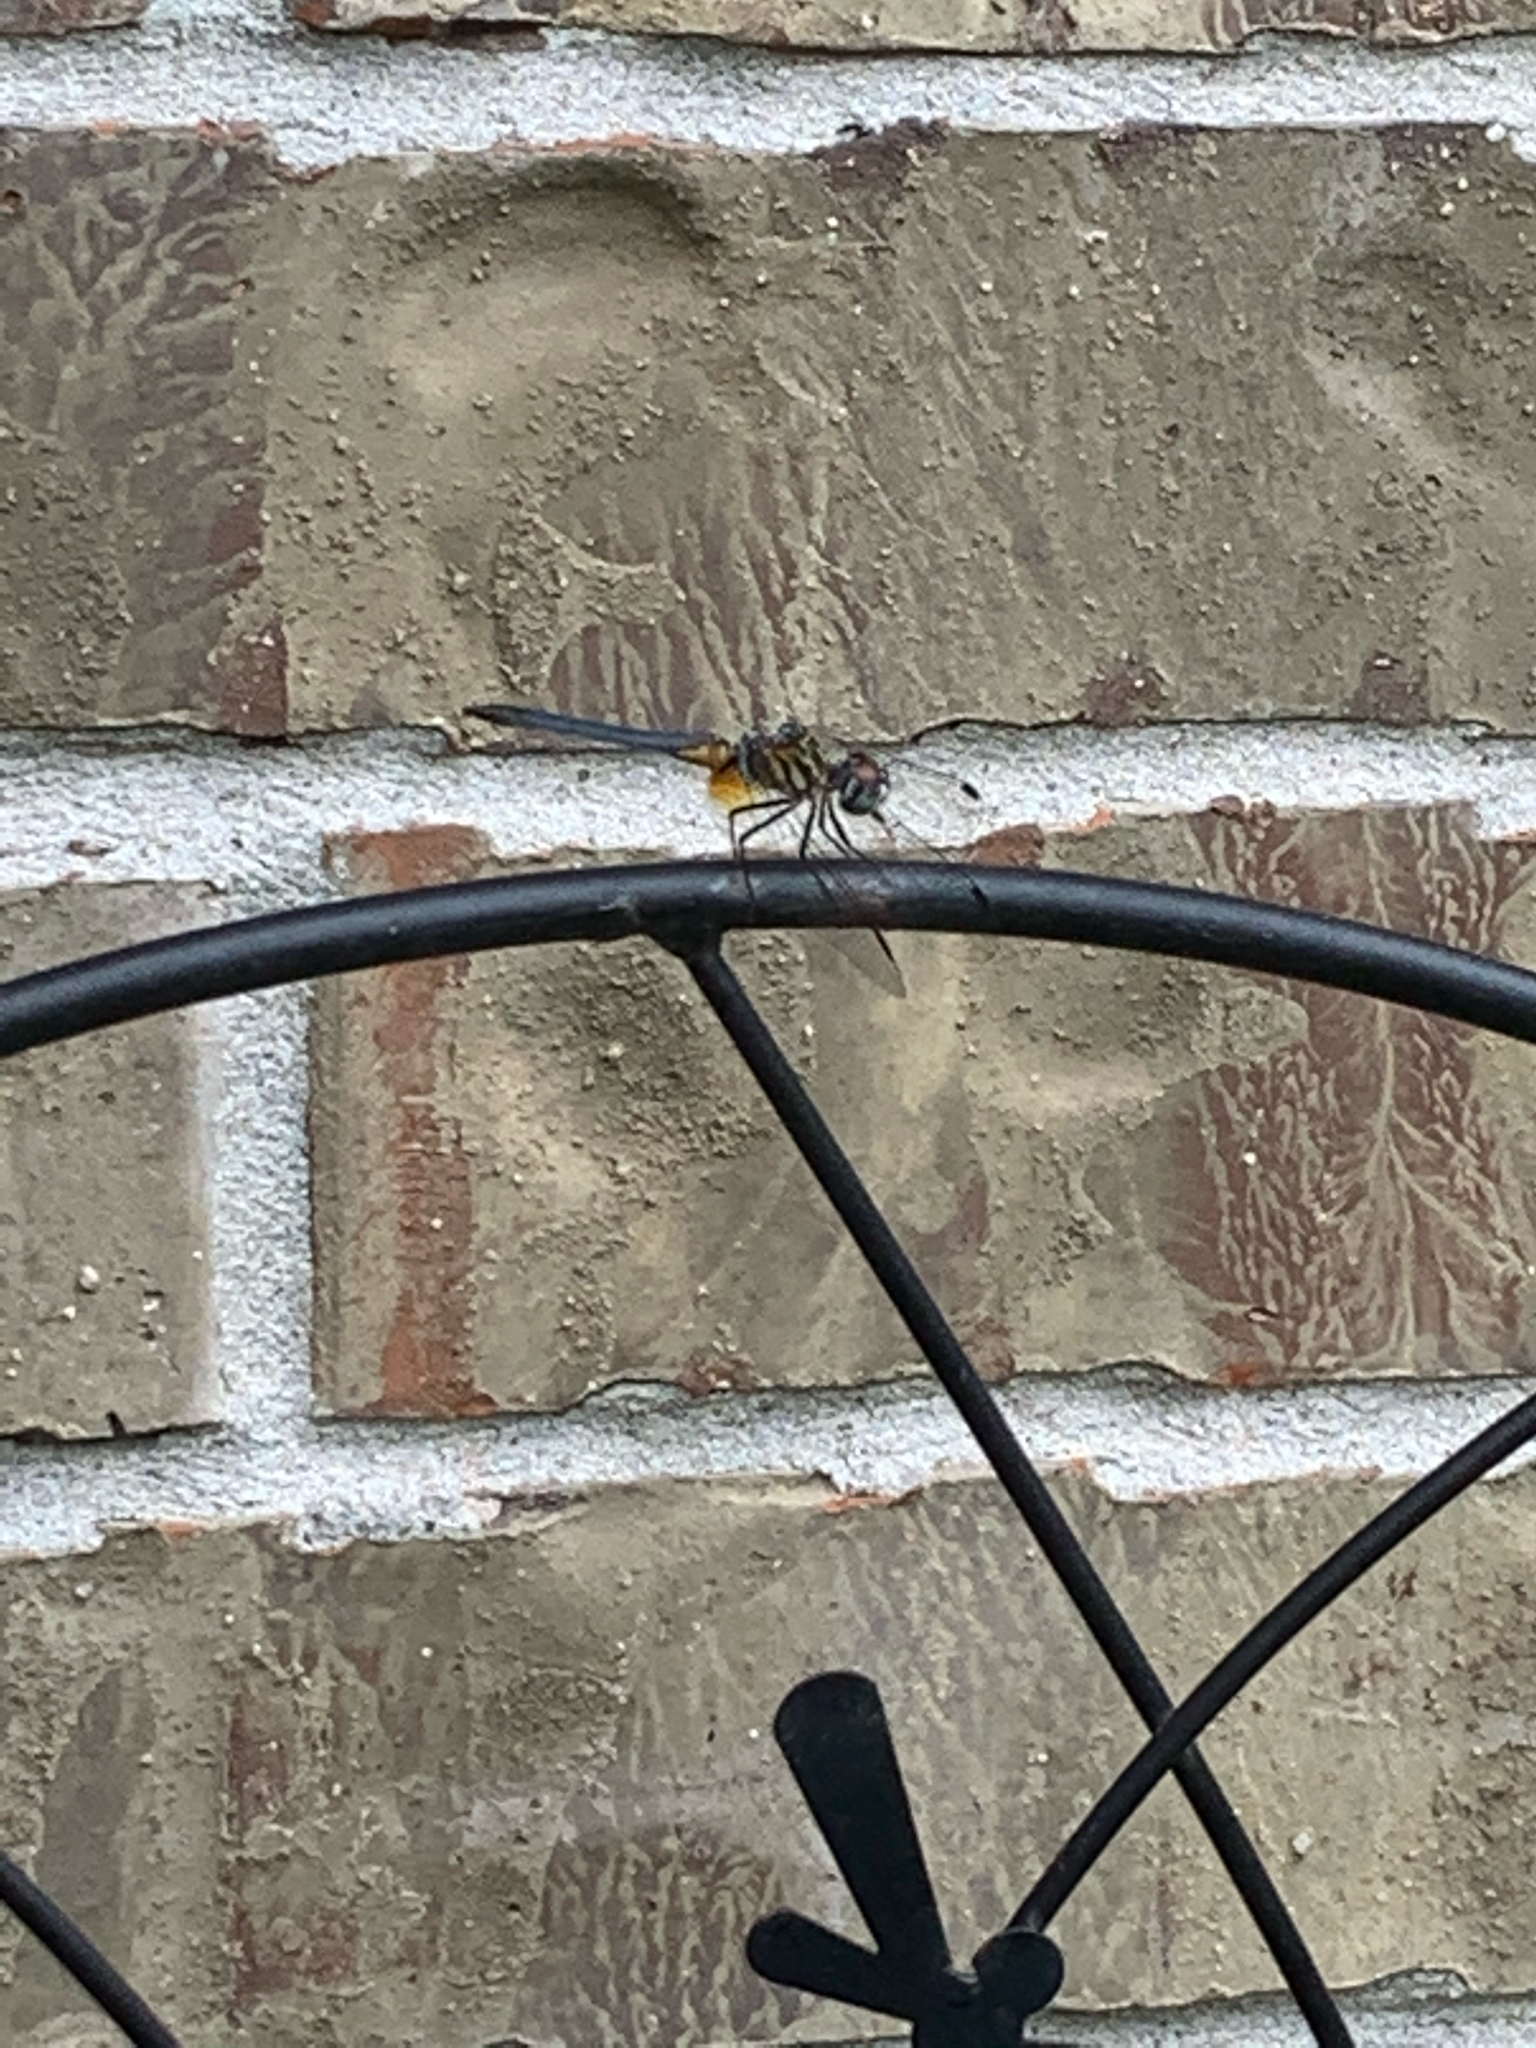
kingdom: Animalia
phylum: Arthropoda
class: Insecta
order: Odonata
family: Libellulidae
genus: Pachydiplax
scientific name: Pachydiplax longipennis
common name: Blue dasher
